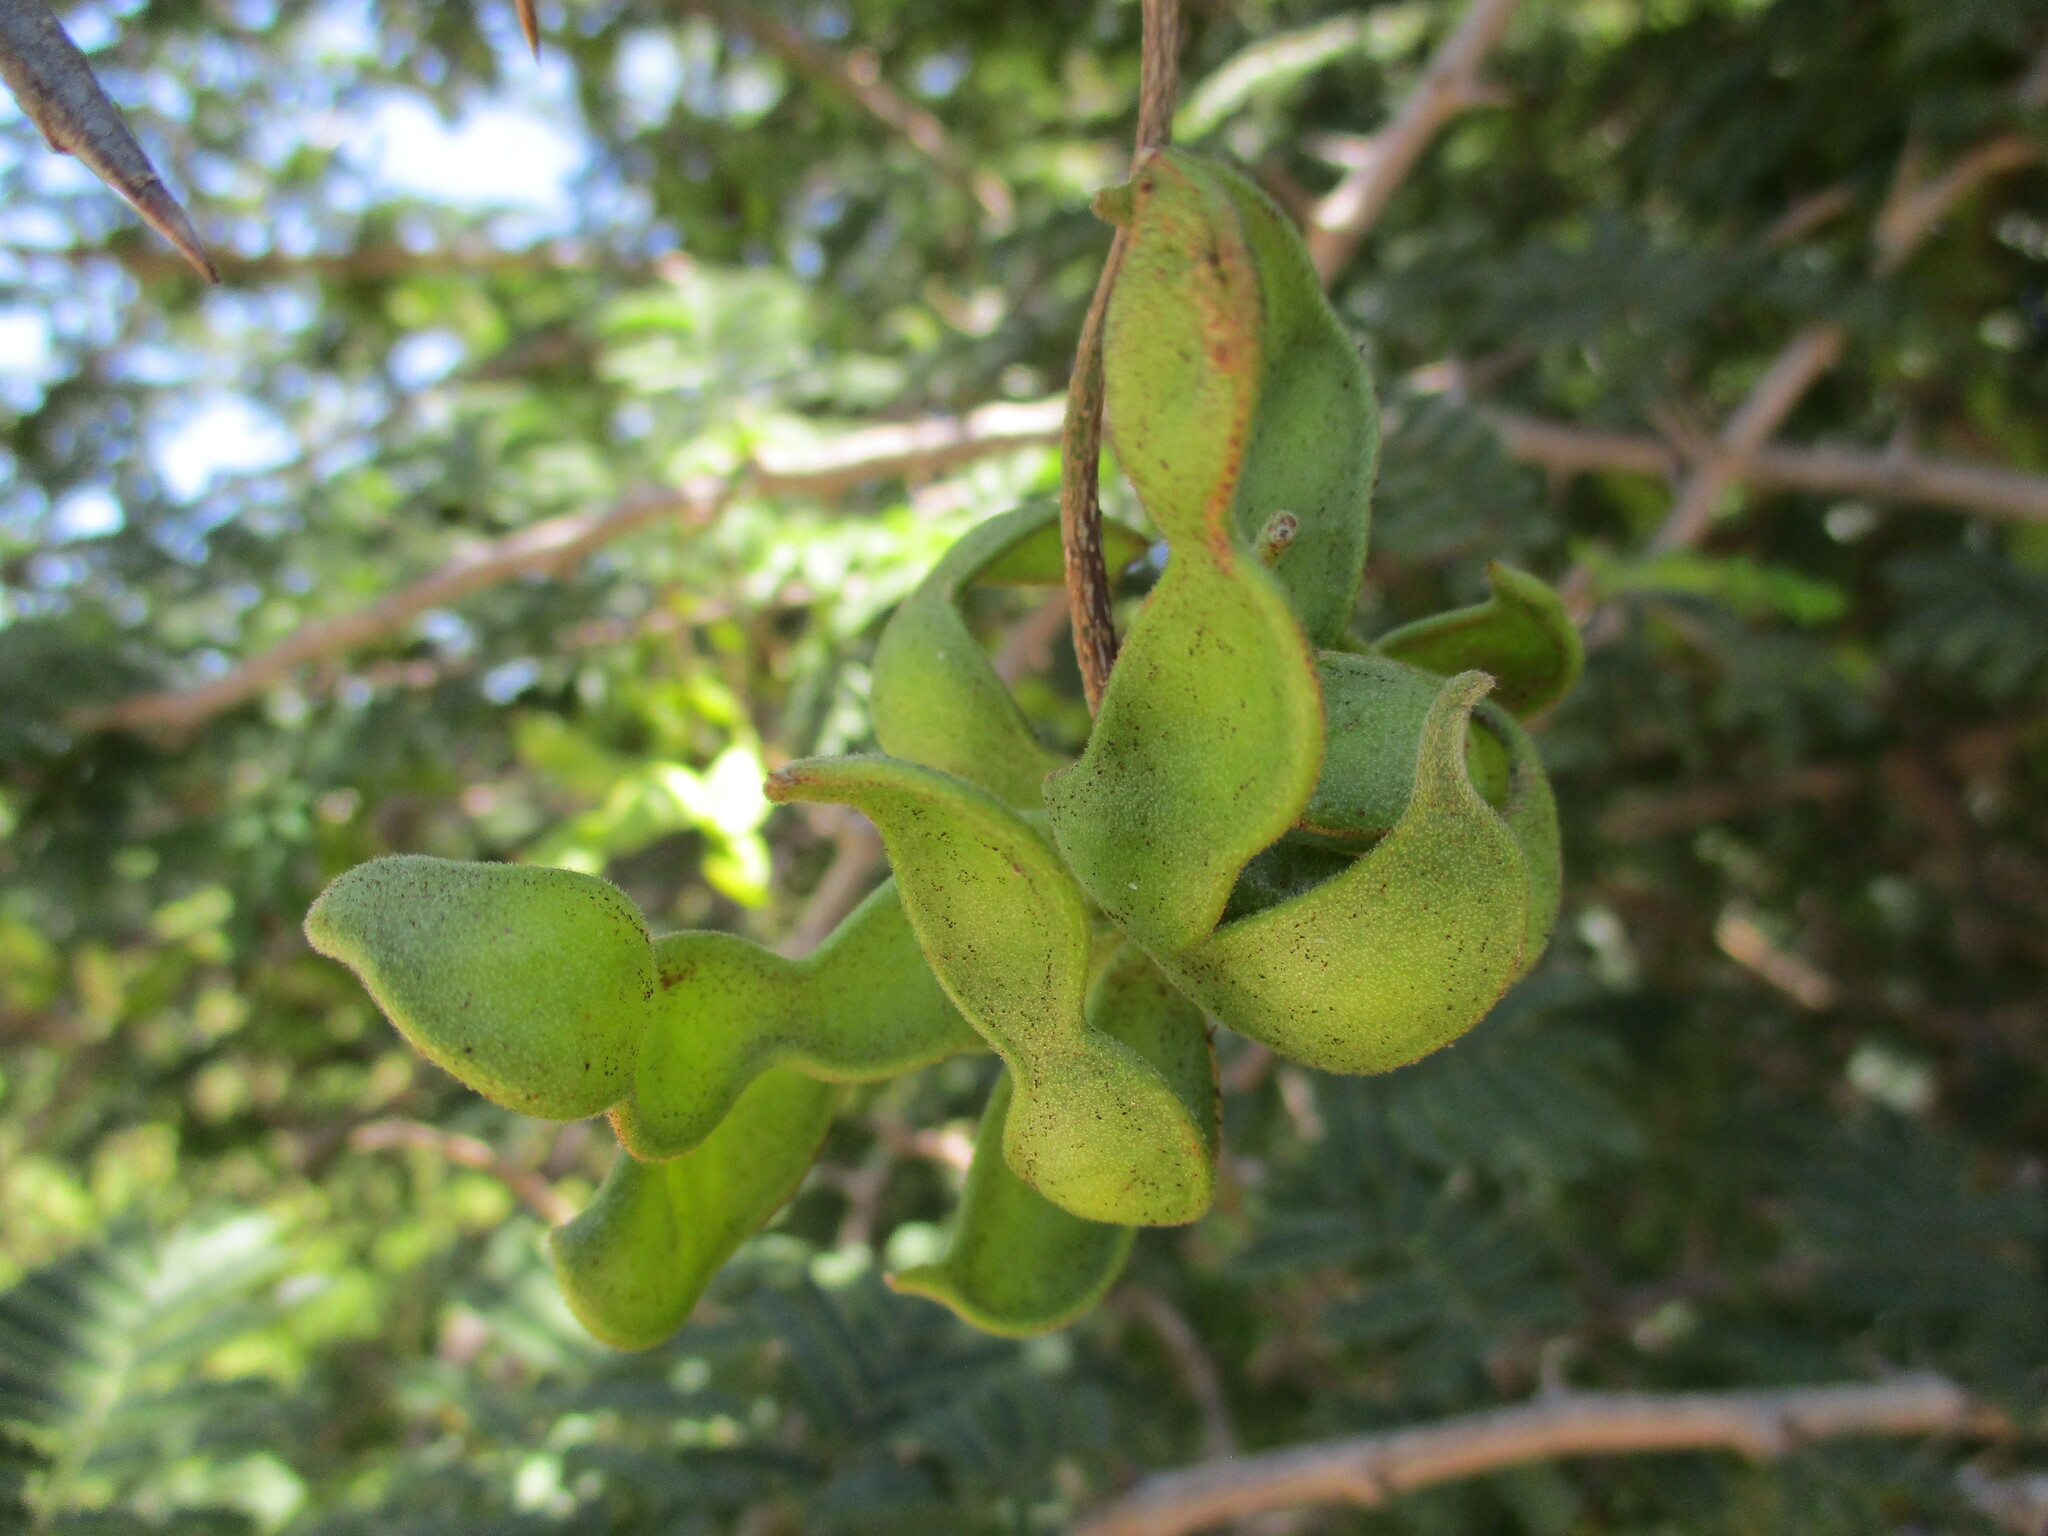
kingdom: Plantae
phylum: Tracheophyta
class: Magnoliopsida
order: Fabales
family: Fabaceae
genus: Dichrostachys
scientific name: Dichrostachys cinerea
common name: Sicklebush
